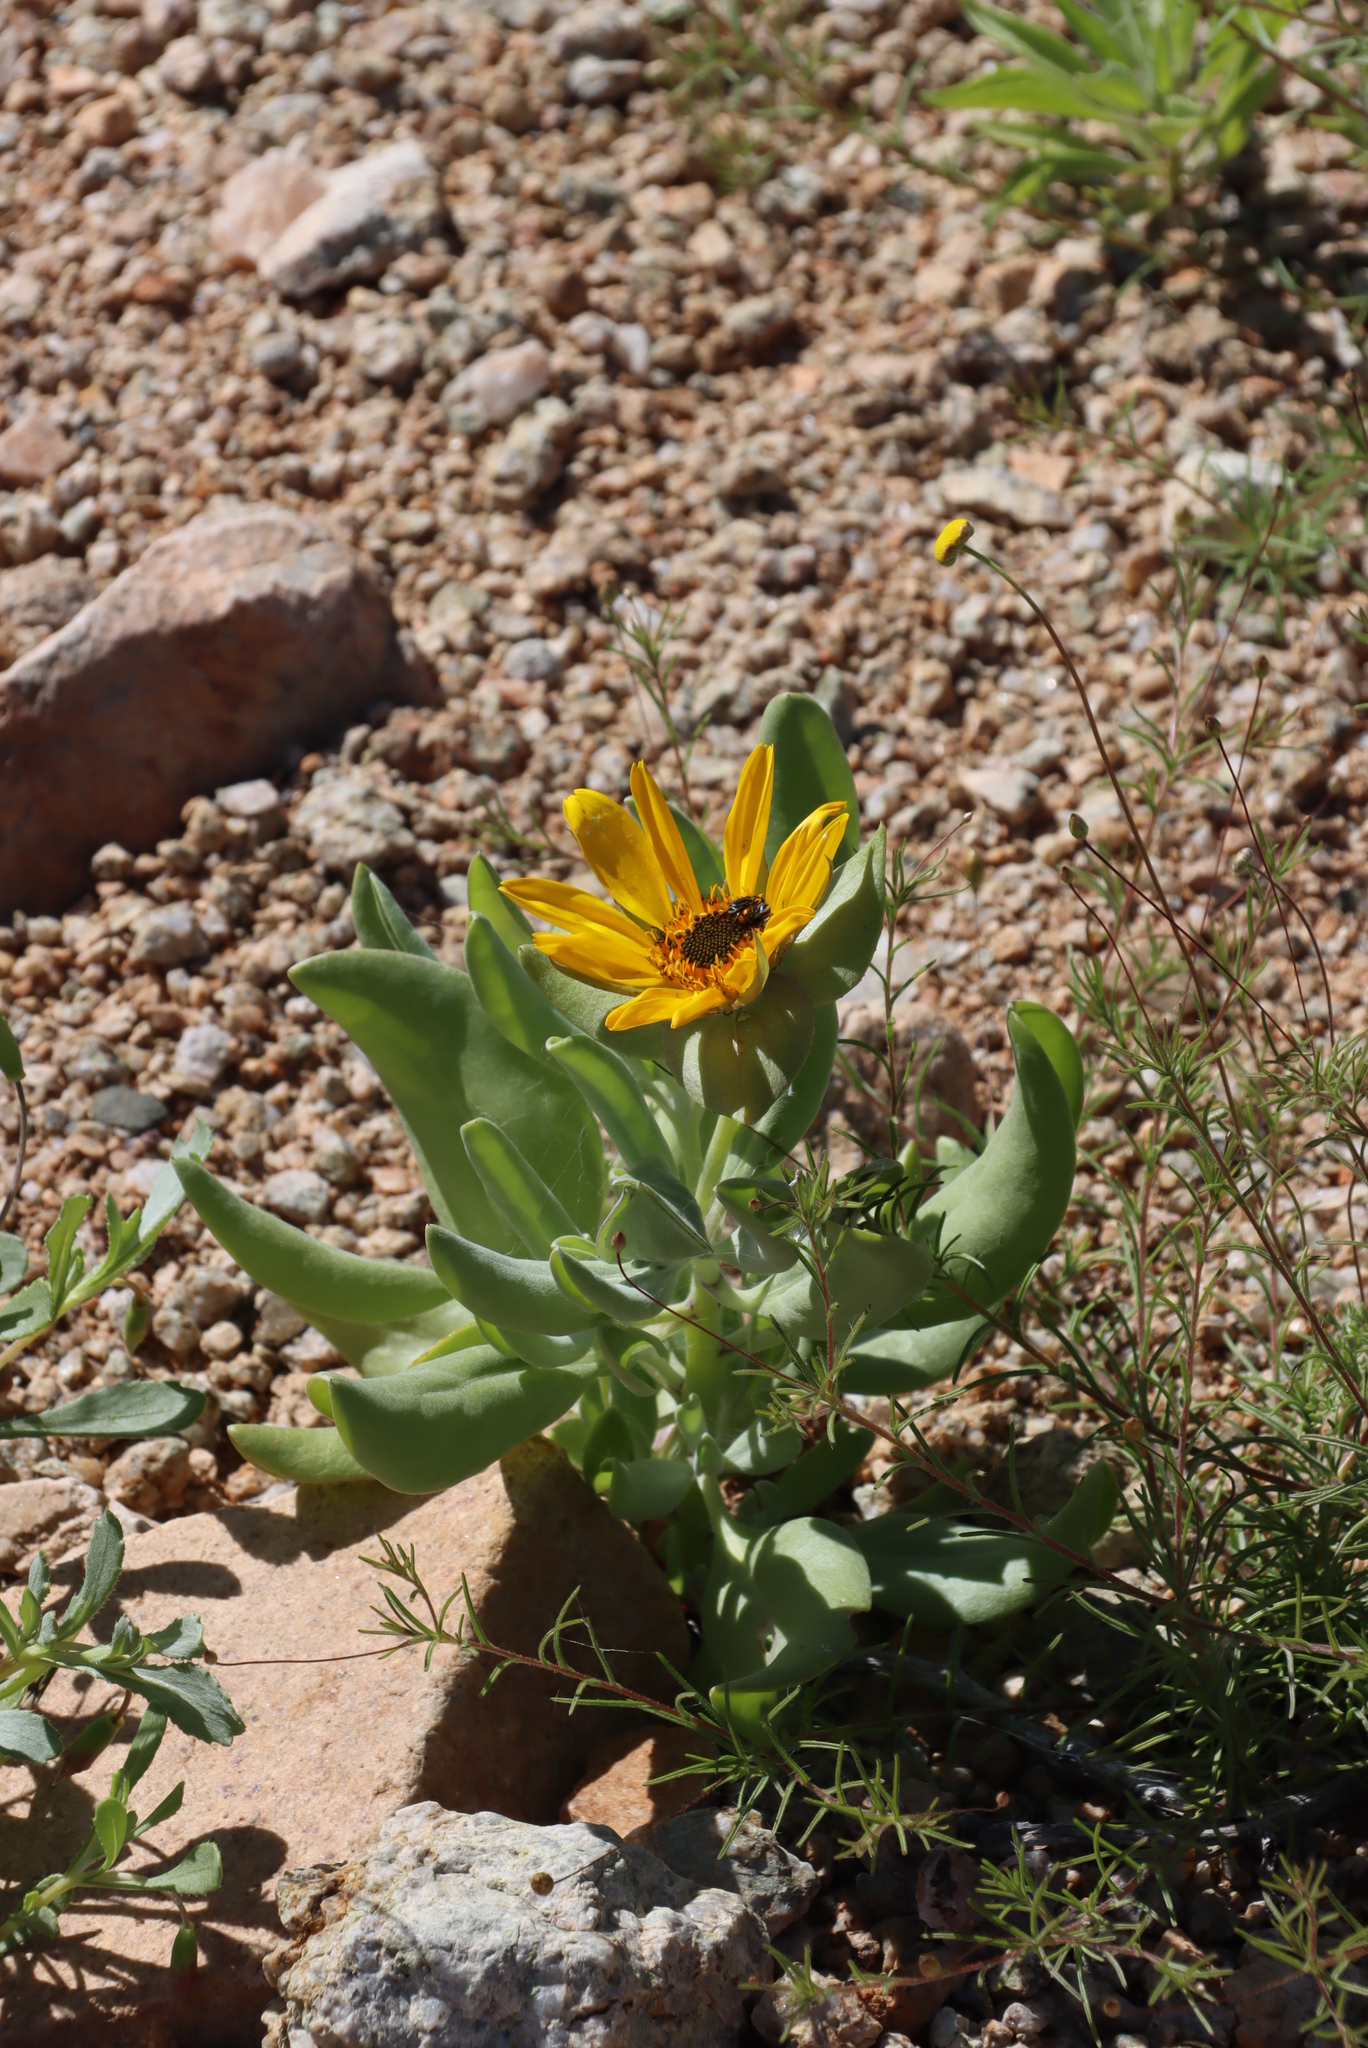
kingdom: Plantae
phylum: Tracheophyta
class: Magnoliopsida
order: Asterales
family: Asteraceae
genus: Didelta
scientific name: Didelta carnosa
